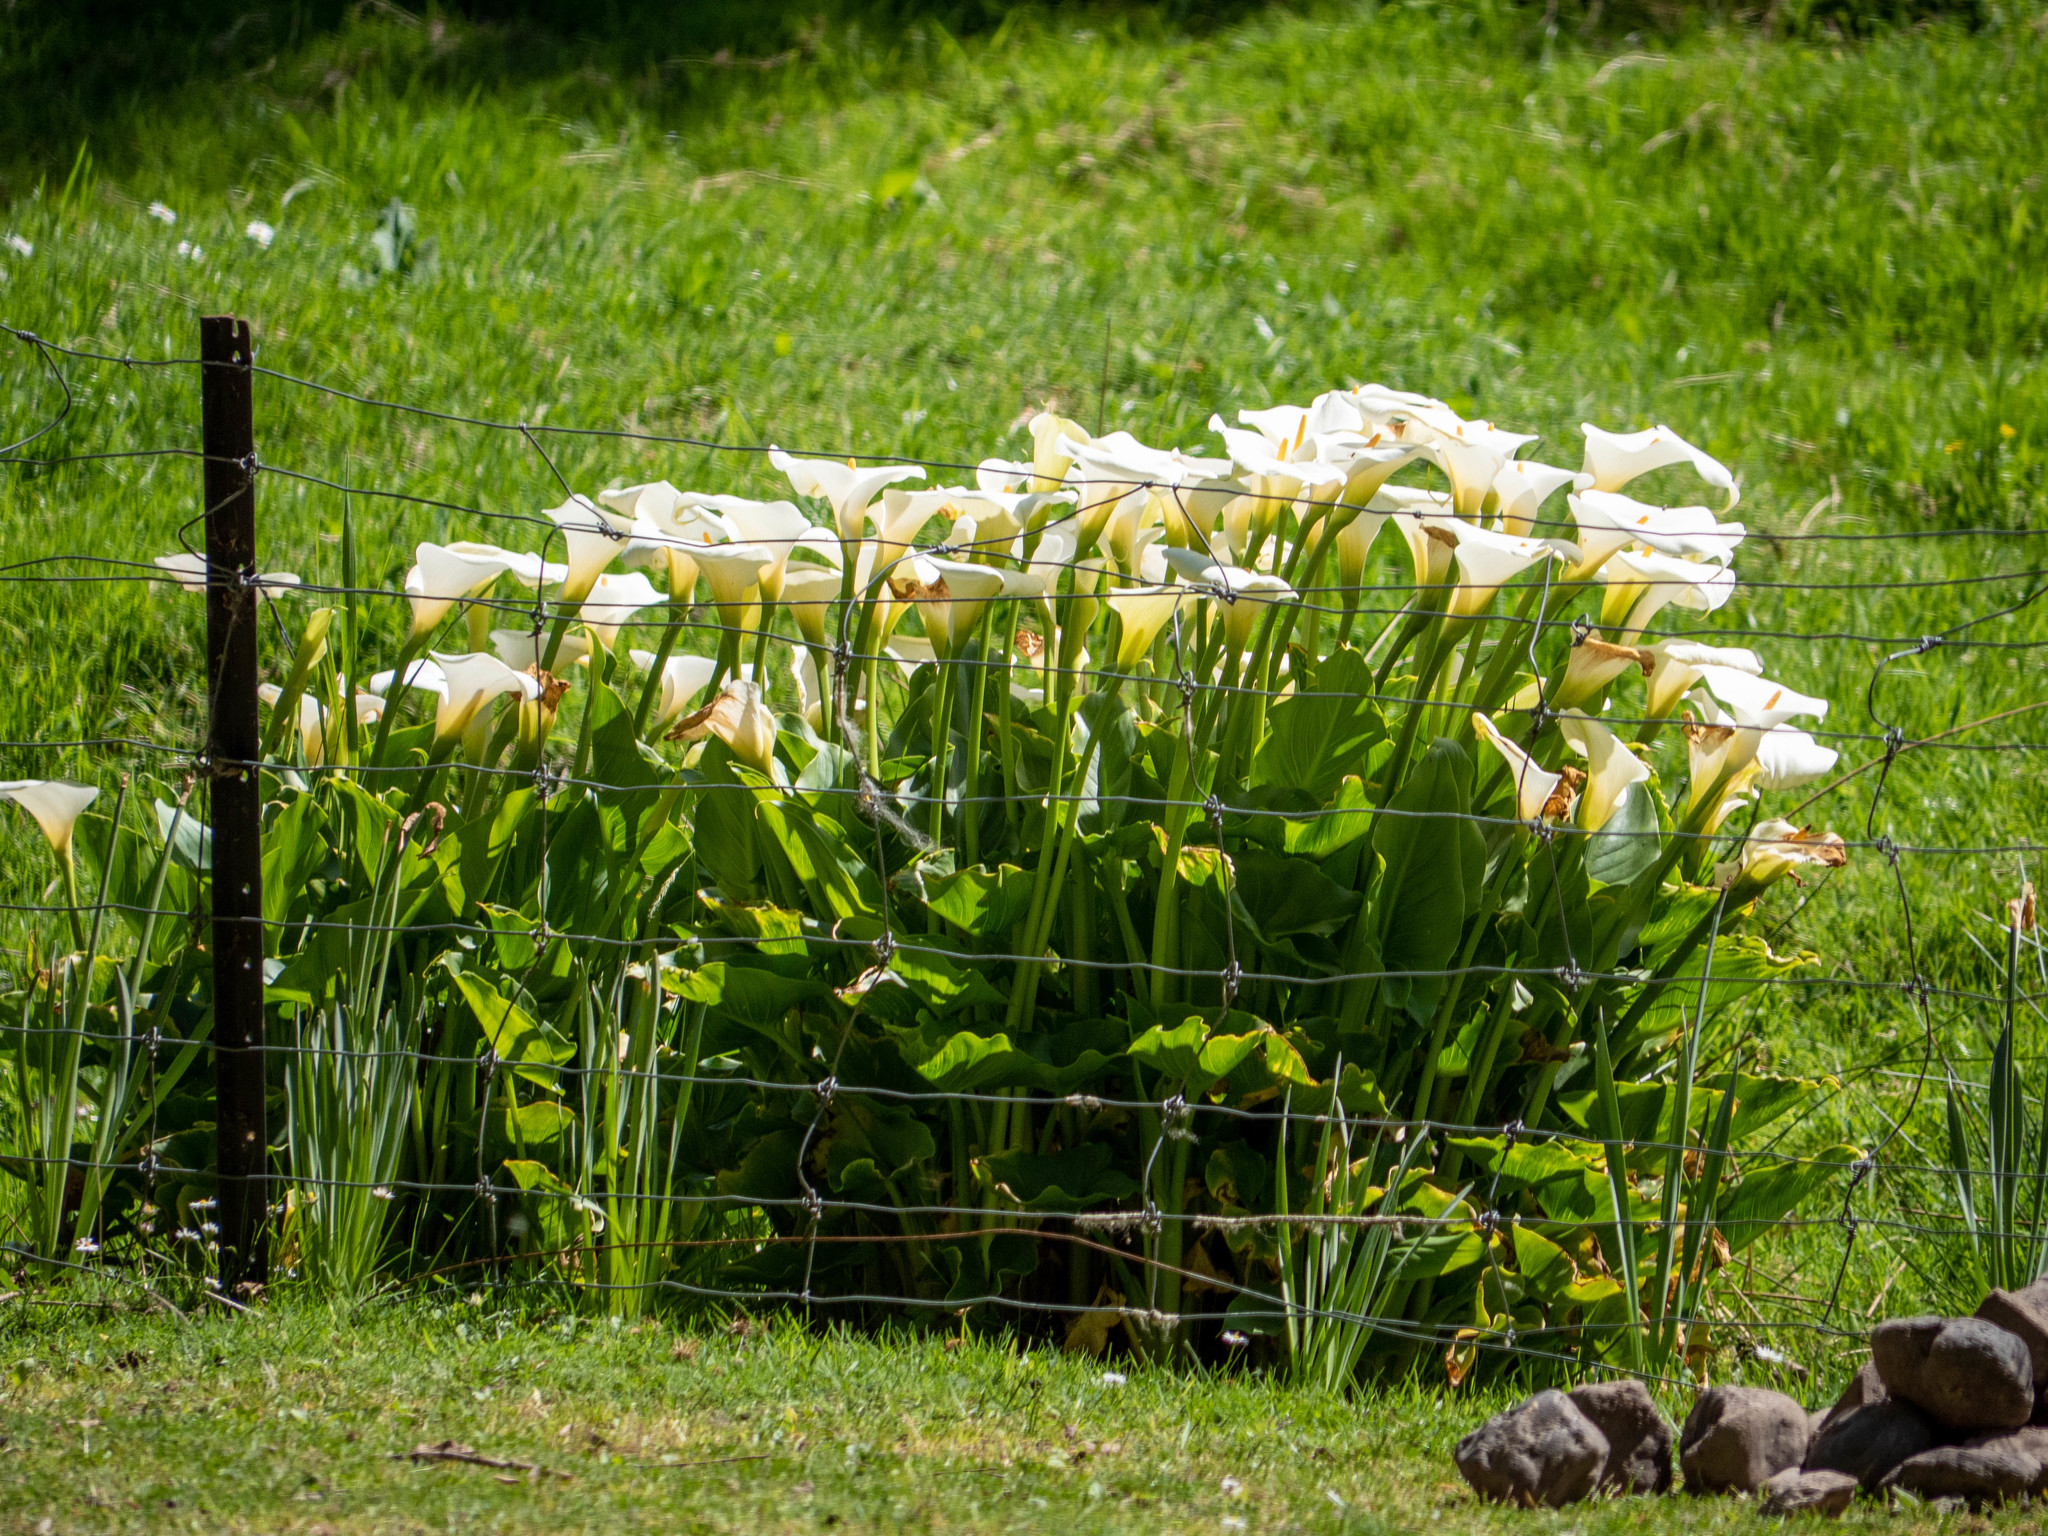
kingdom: Plantae
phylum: Tracheophyta
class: Liliopsida
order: Alismatales
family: Araceae
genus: Zantedeschia
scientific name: Zantedeschia aethiopica
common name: Altar-lily
